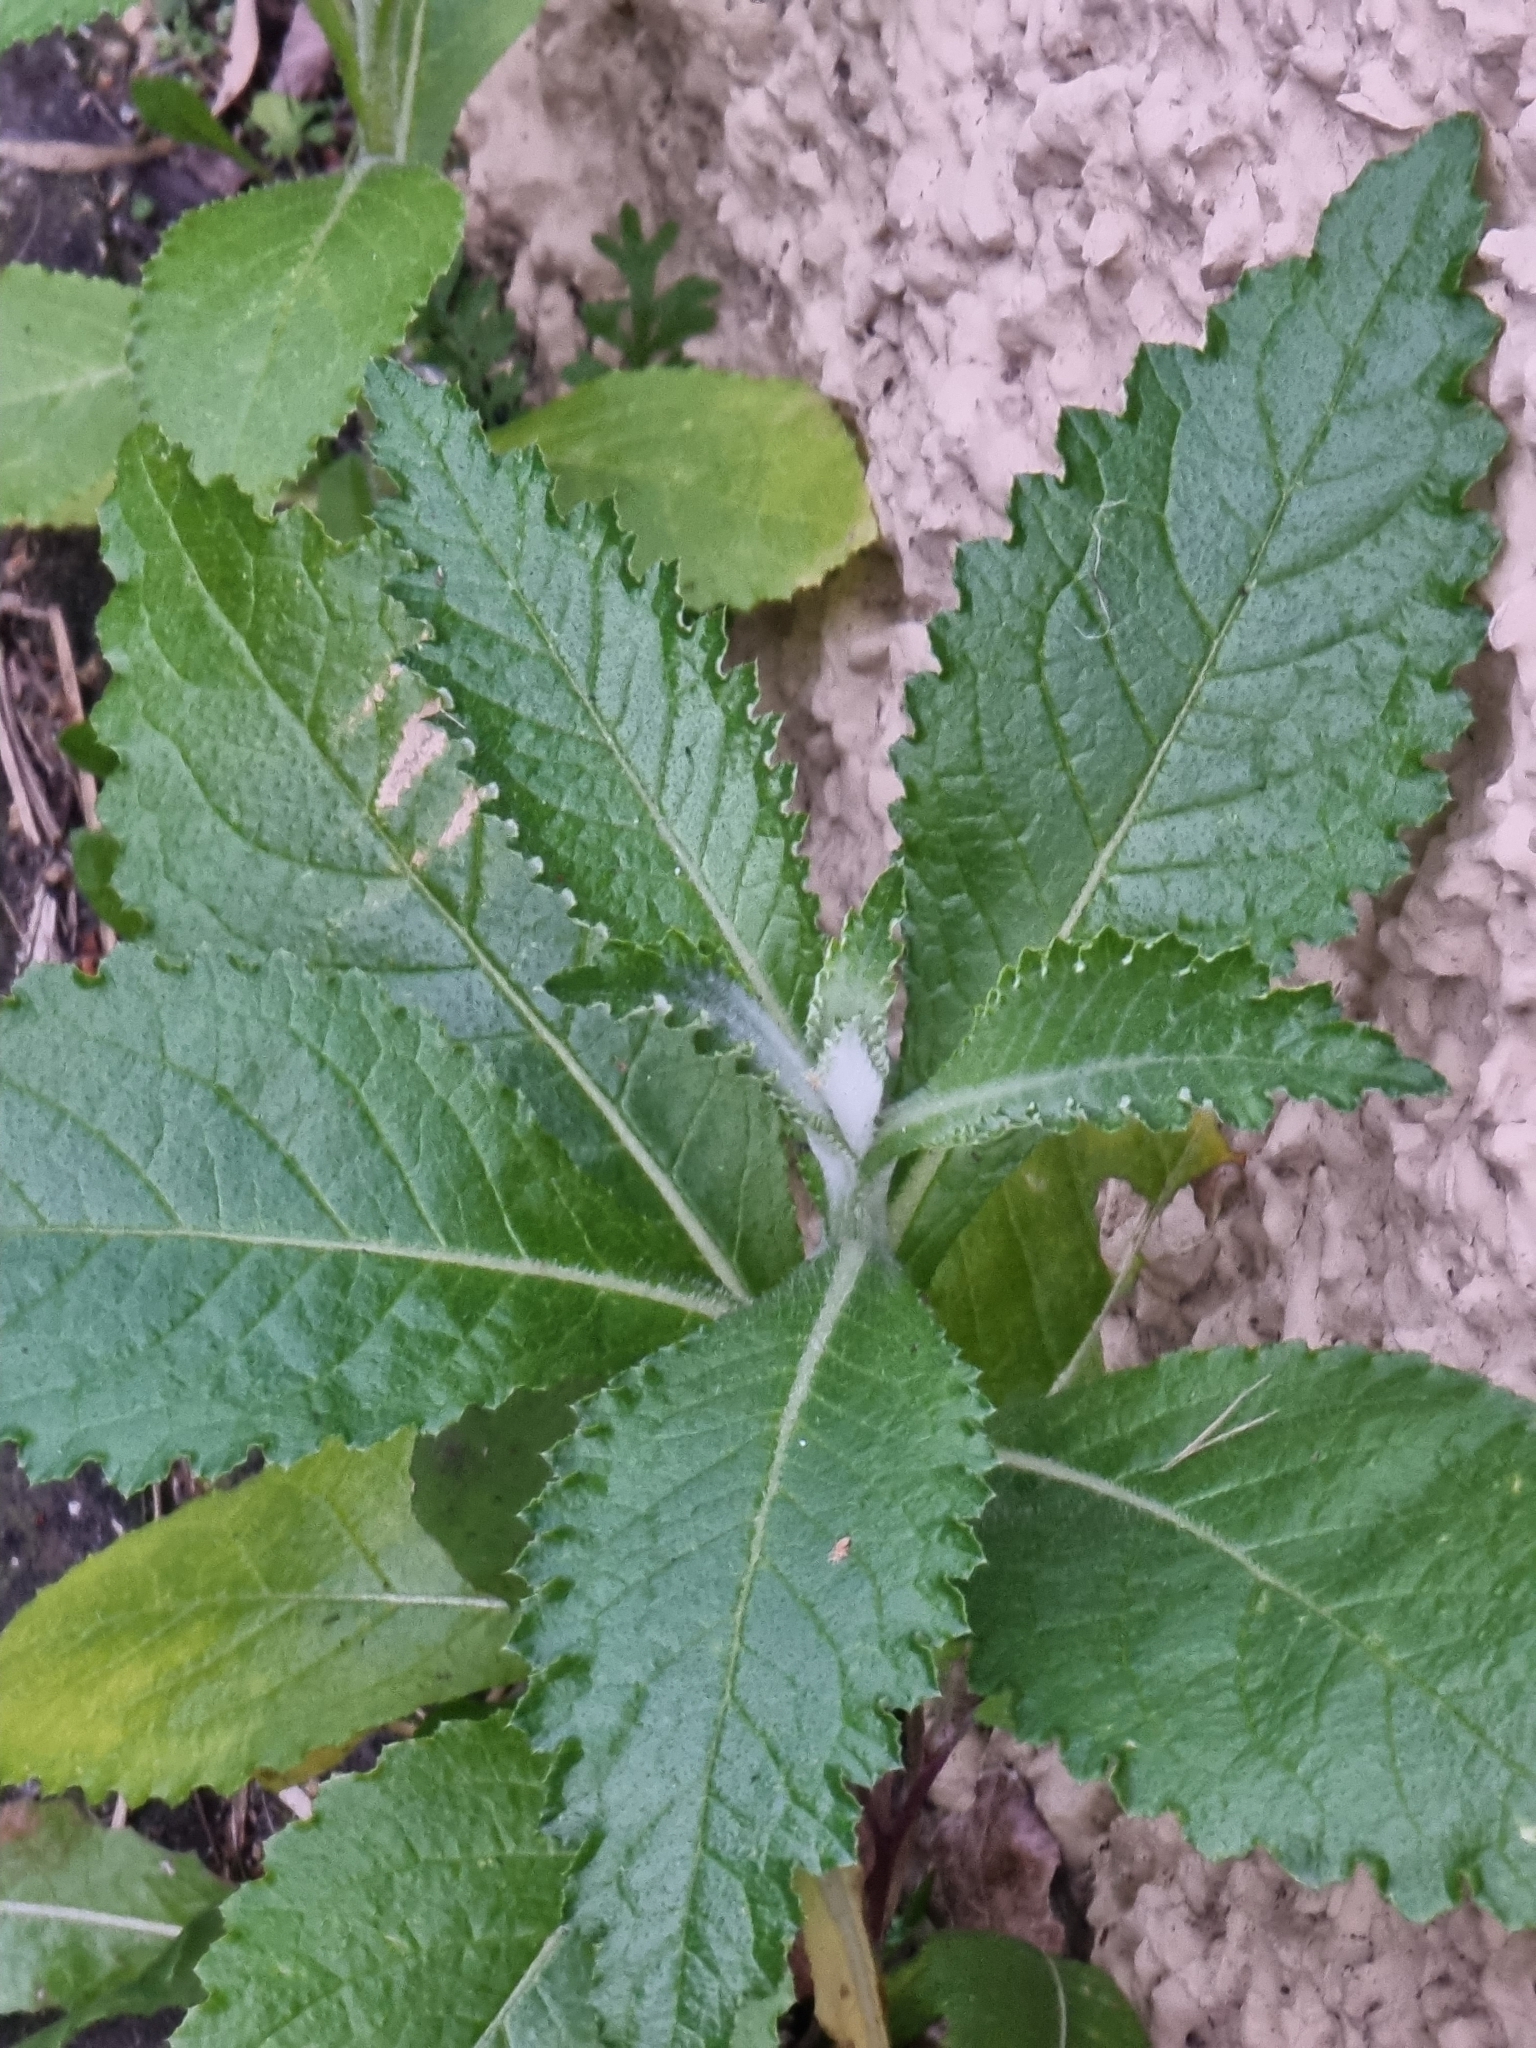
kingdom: Plantae
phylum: Tracheophyta
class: Magnoliopsida
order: Asterales
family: Asteraceae
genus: Carduus
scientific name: Carduus squarrosus
